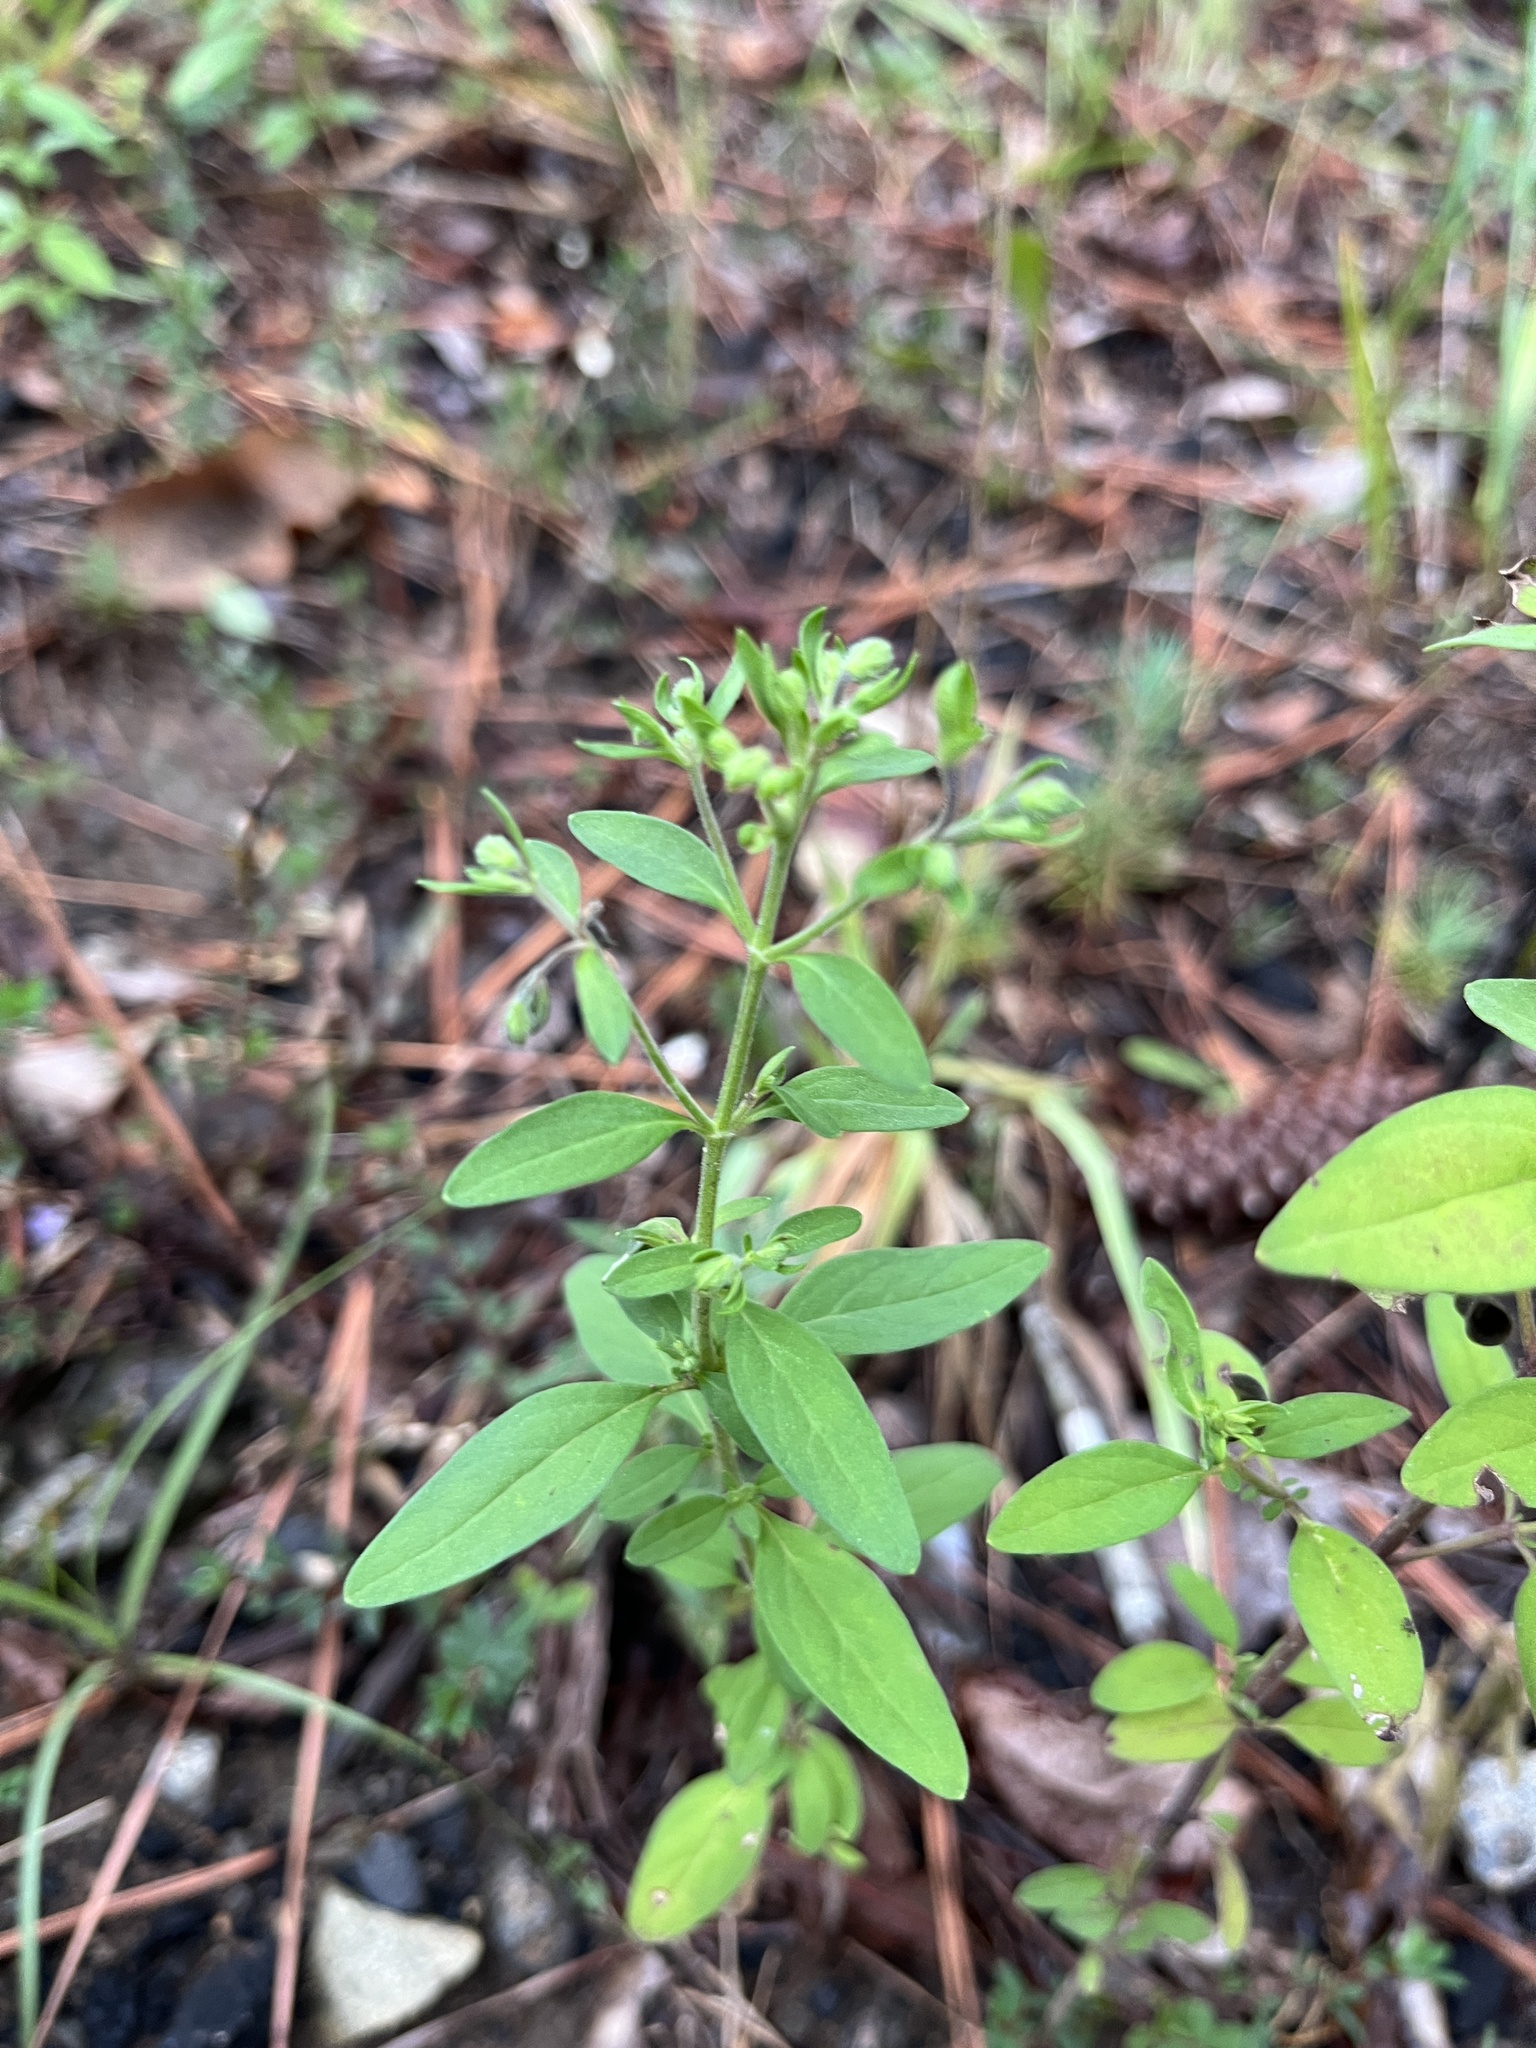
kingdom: Plantae
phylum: Tracheophyta
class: Magnoliopsida
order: Lamiales
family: Lamiaceae
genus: Trichostema
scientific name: Trichostema dichotomum
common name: Bastard pennyroyal
